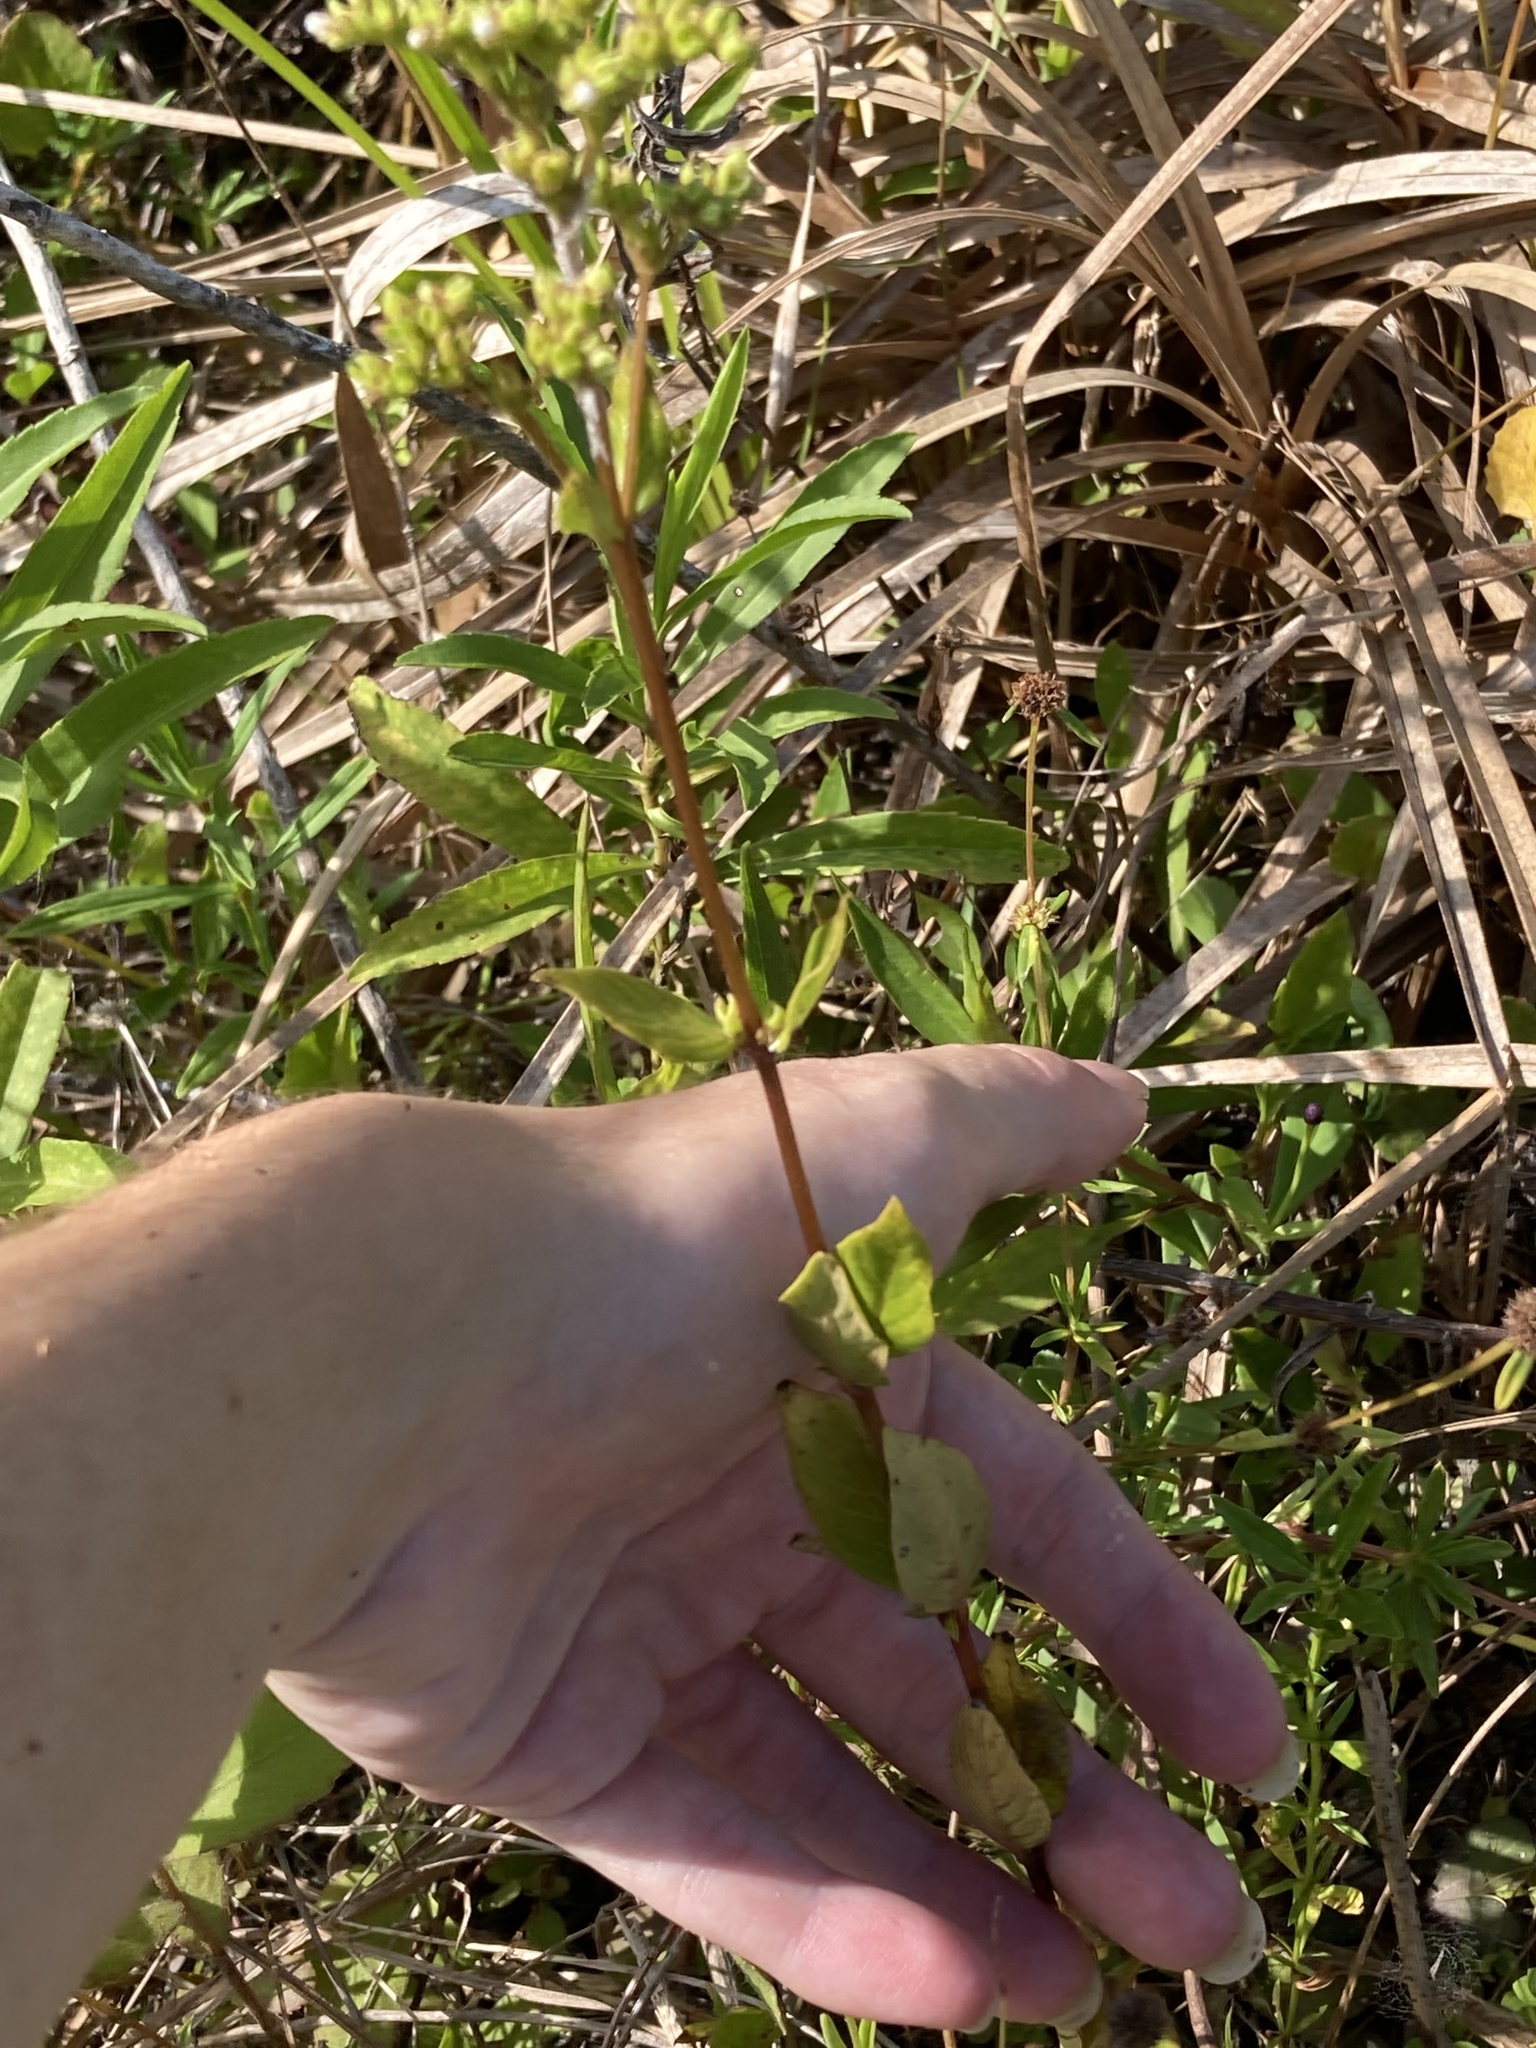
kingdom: Plantae
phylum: Tracheophyta
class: Magnoliopsida
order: Gentianales
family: Loganiaceae
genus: Mitreola
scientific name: Mitreola sessilifolia
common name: Swamp hornpod
